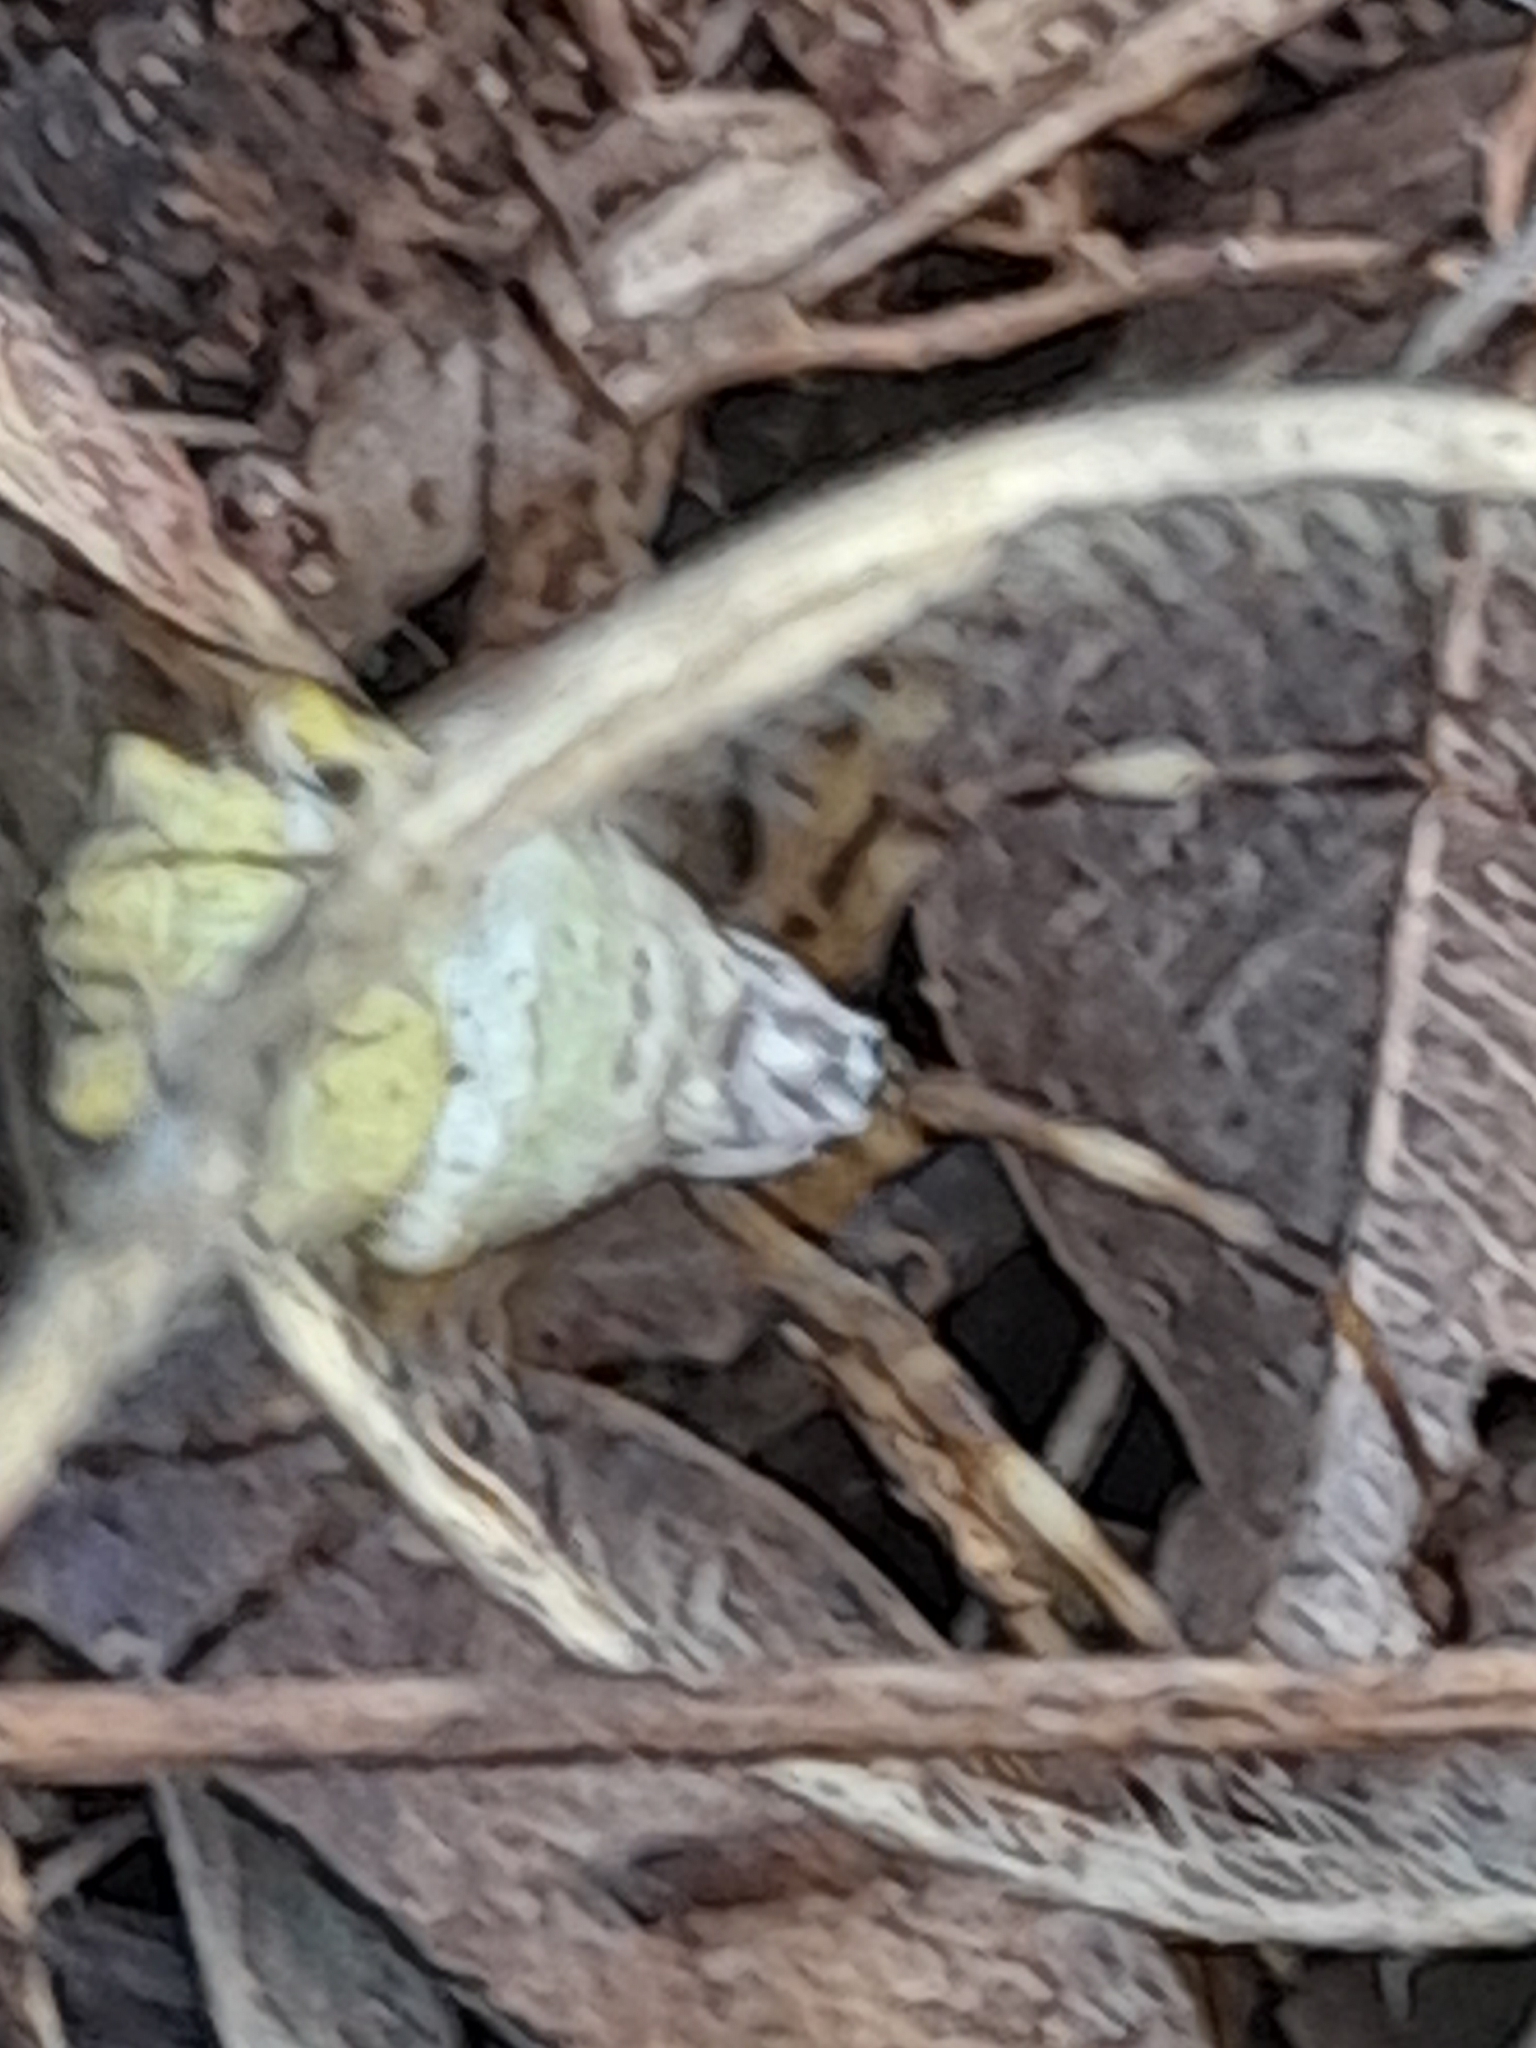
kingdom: Animalia
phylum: Arthropoda
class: Arachnida
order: Araneae
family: Araneidae
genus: Argiope
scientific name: Argiope argentata
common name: Orb weavers
